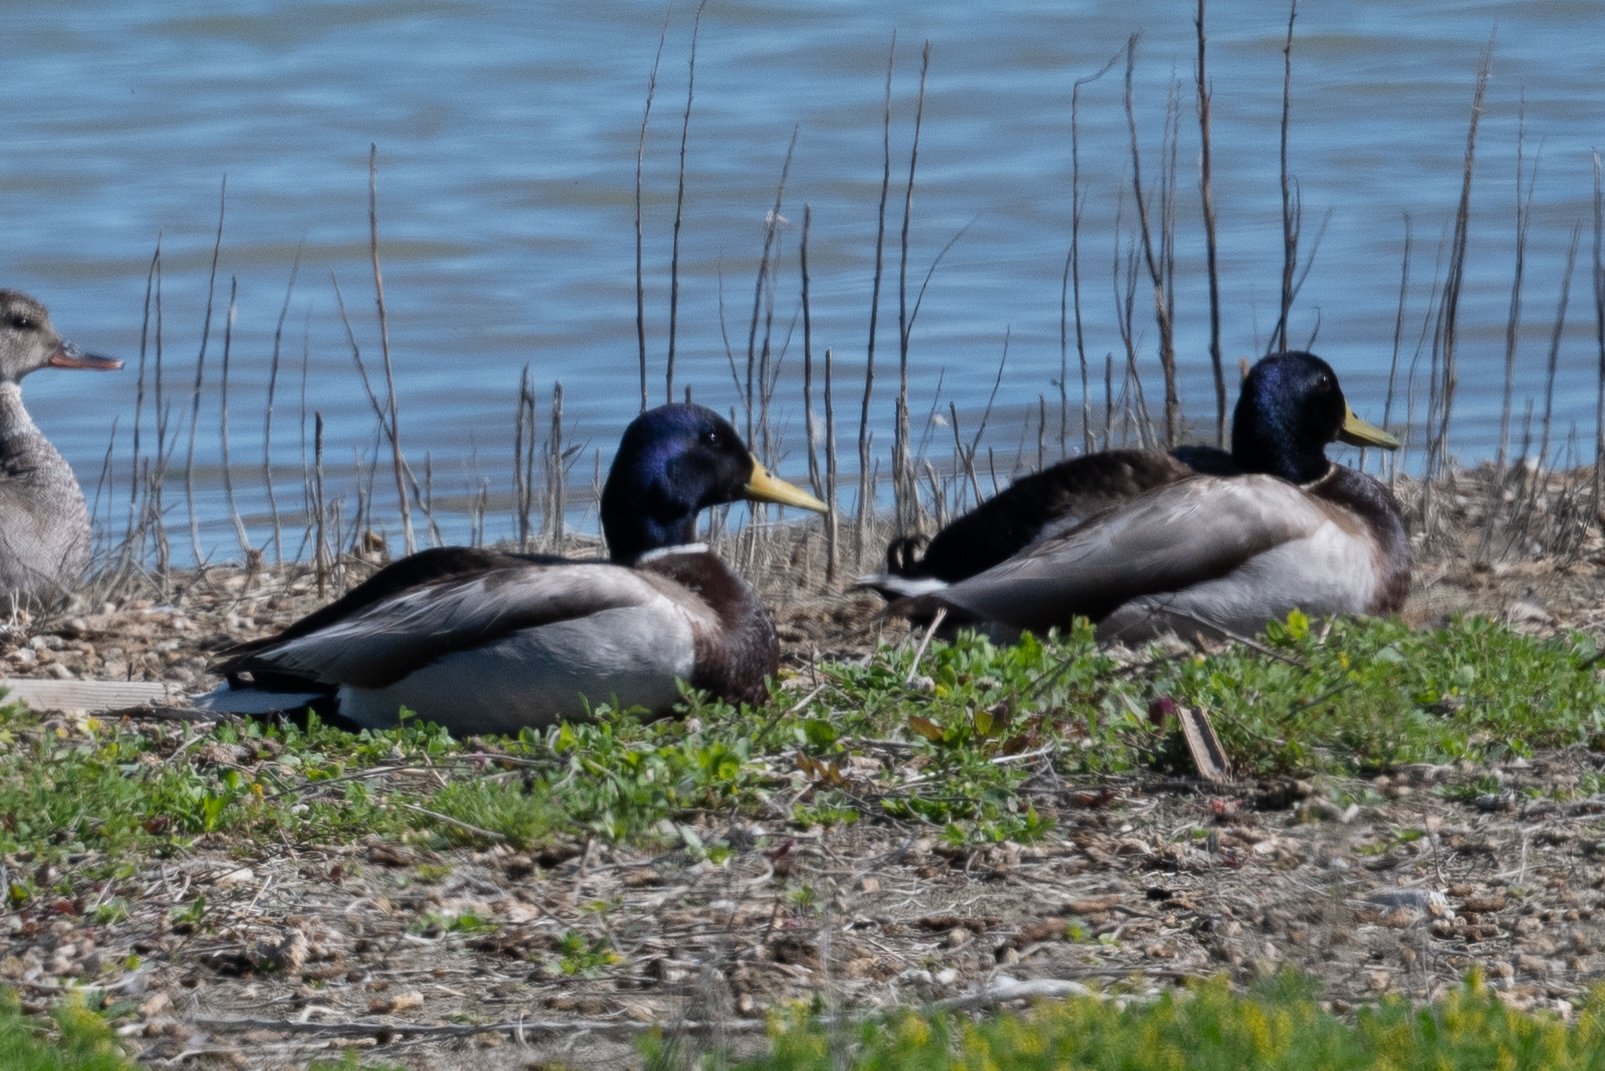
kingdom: Animalia
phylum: Chordata
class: Aves
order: Anseriformes
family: Anatidae
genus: Anas
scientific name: Anas platyrhynchos
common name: Mallard
